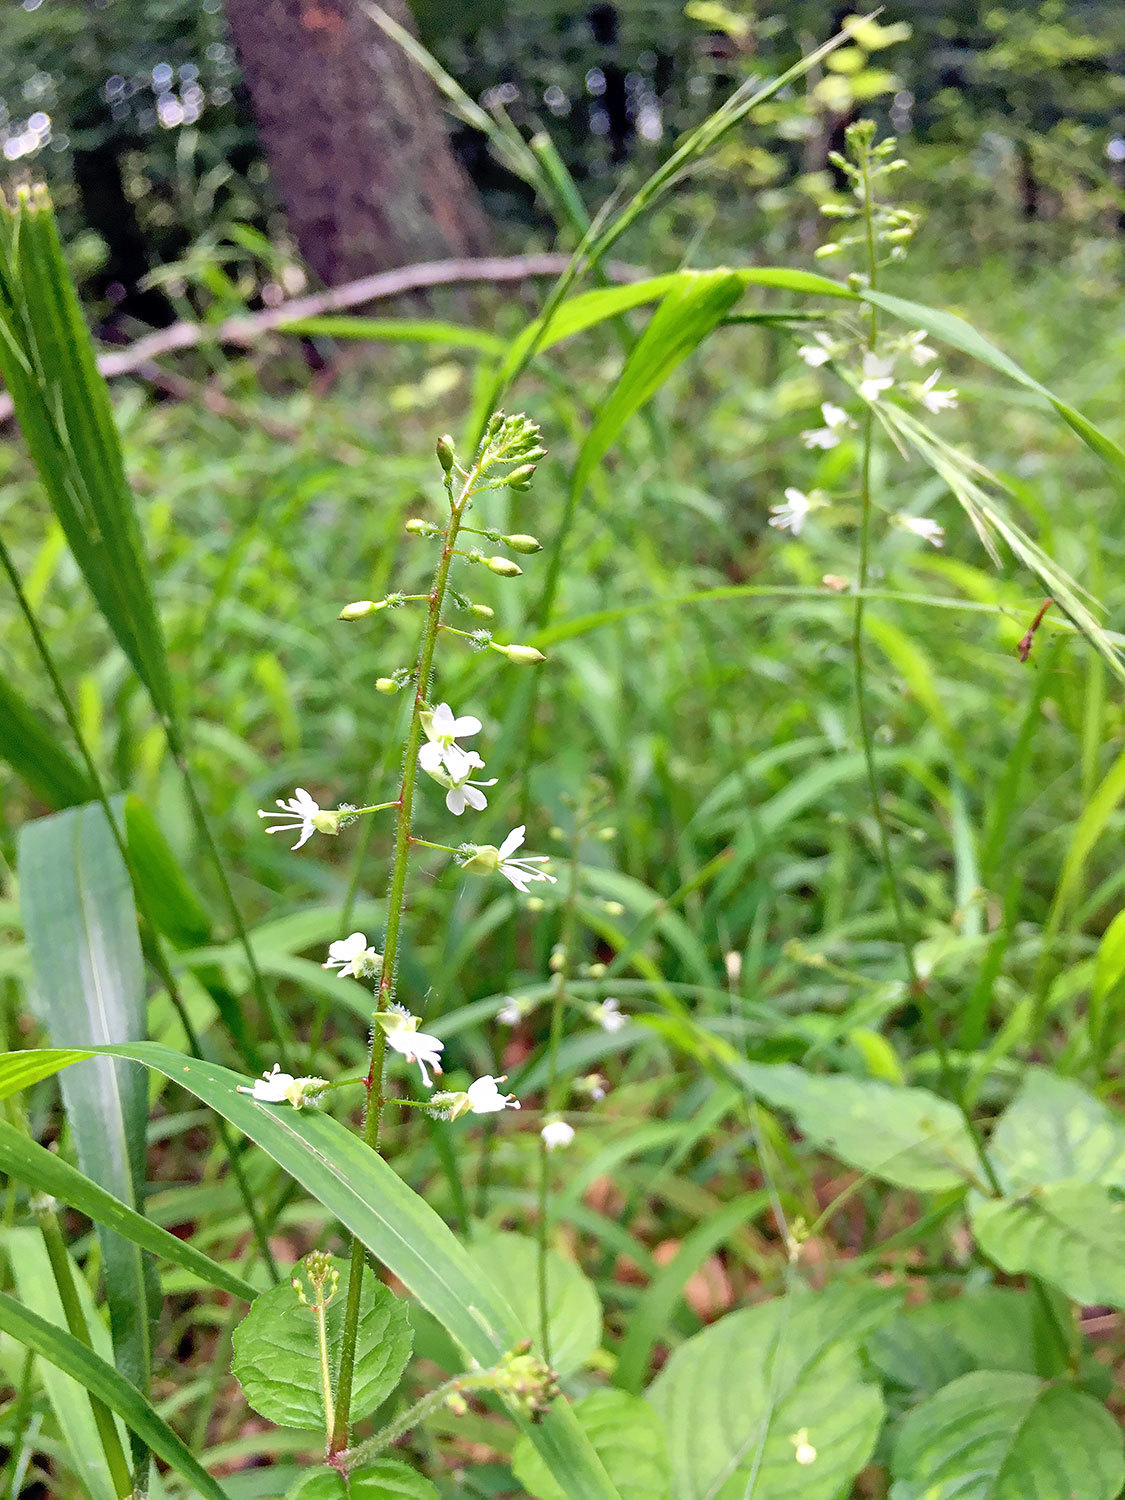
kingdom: Plantae
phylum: Tracheophyta
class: Magnoliopsida
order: Myrtales
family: Onagraceae
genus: Circaea
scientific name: Circaea lutetiana
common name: Enchanter's-nightshade
